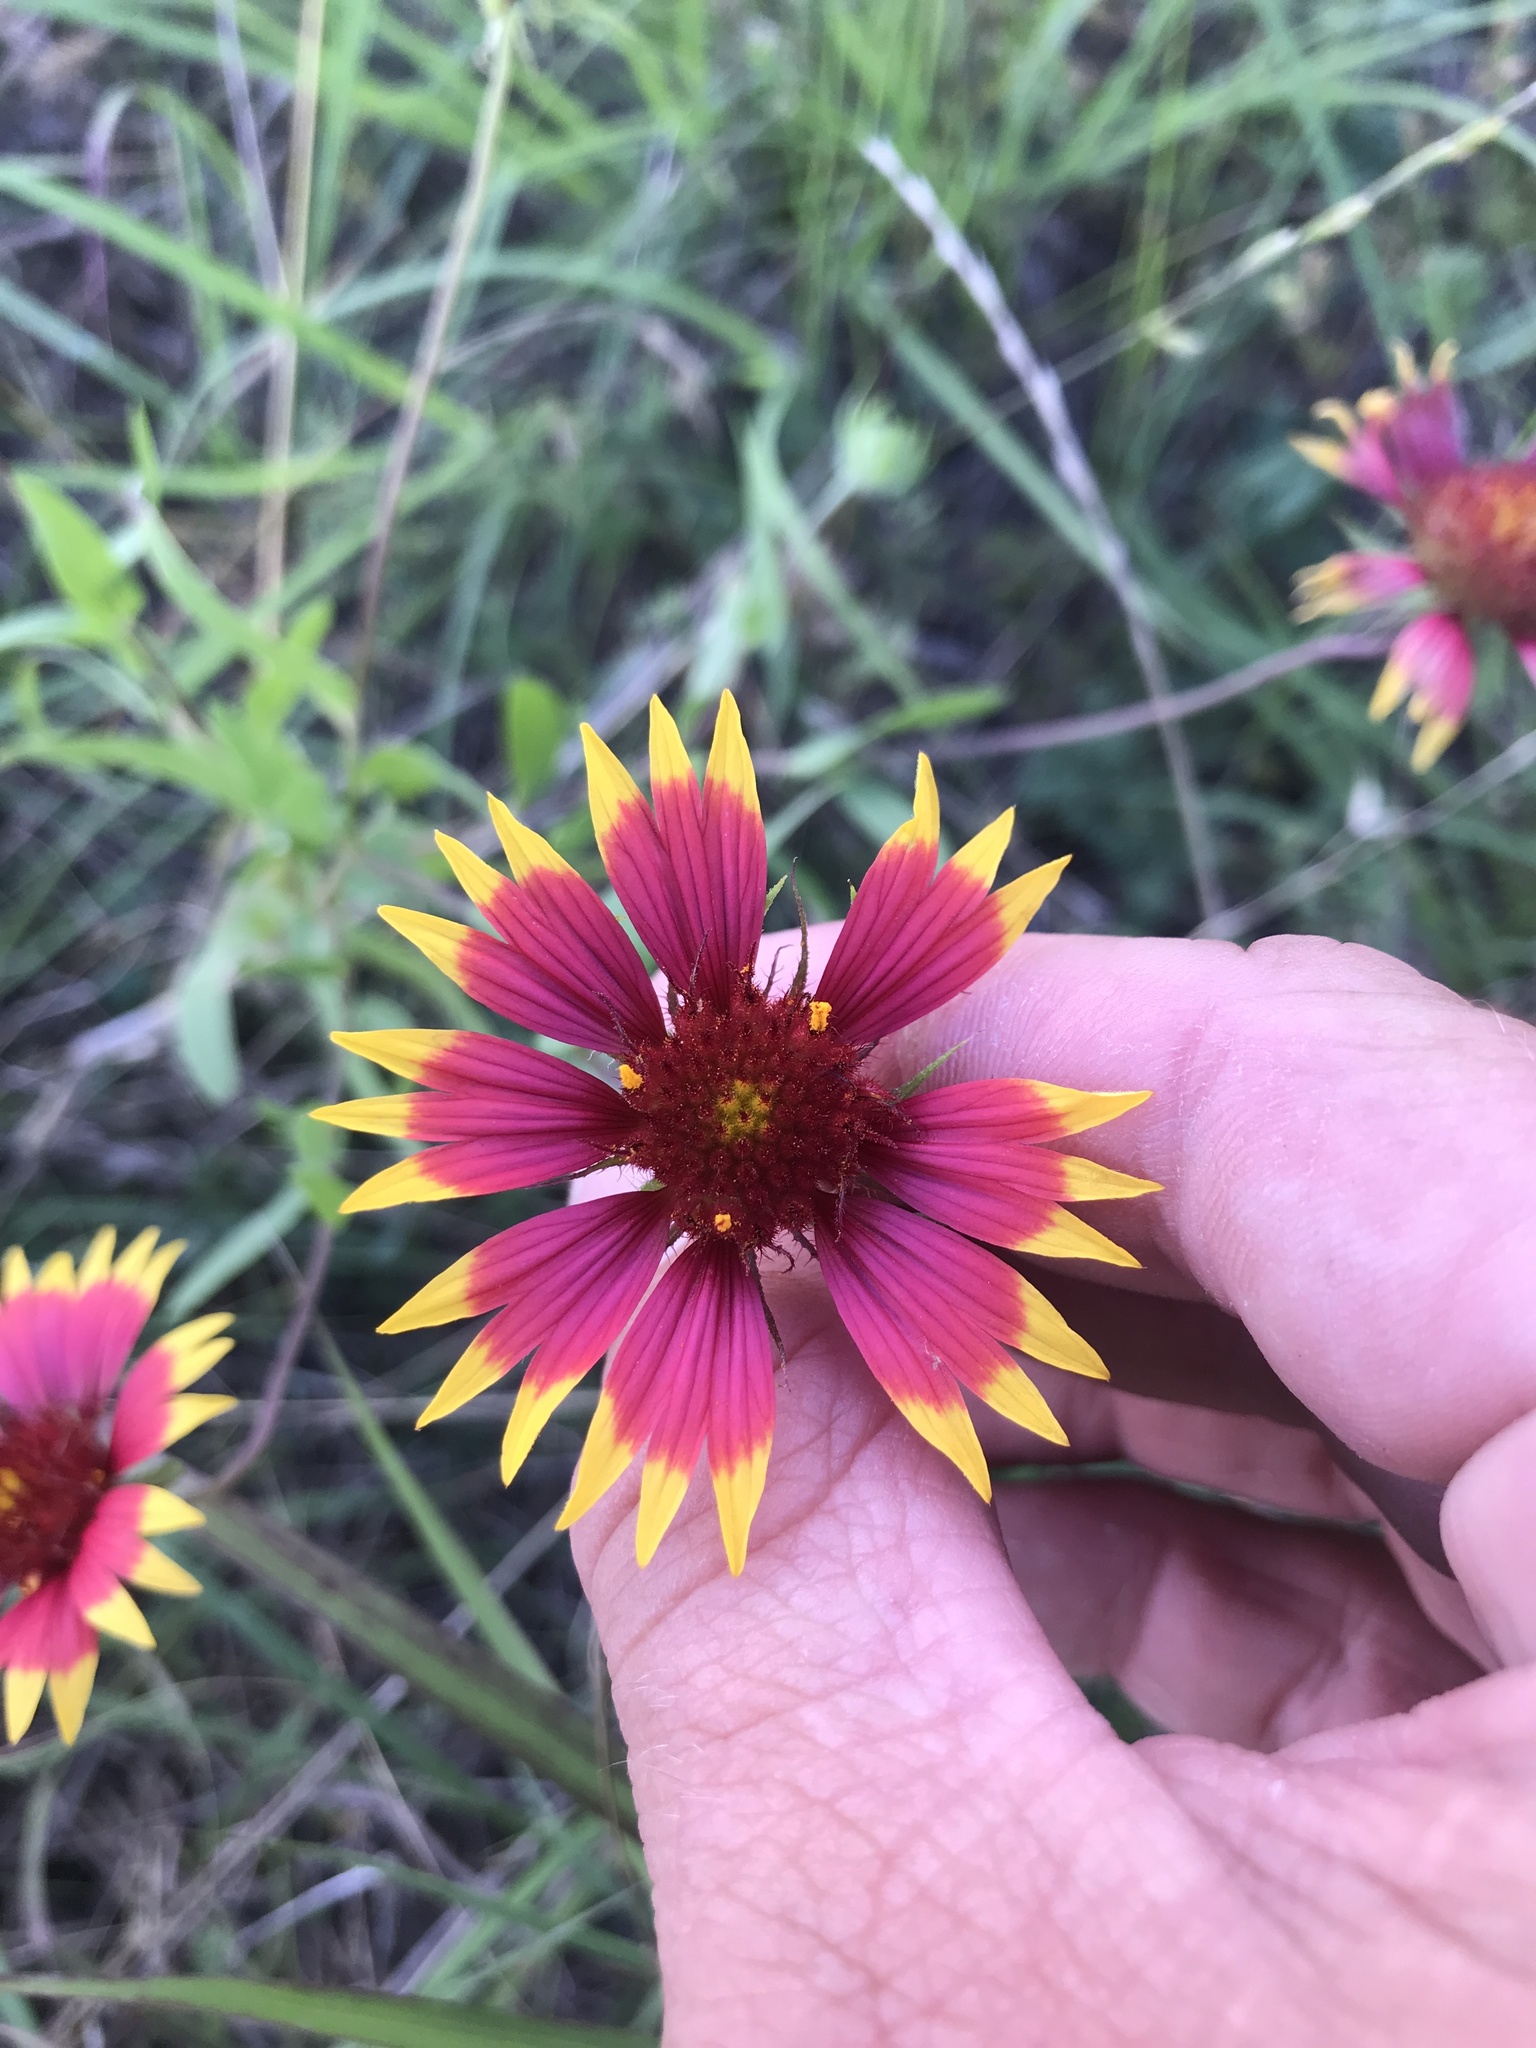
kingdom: Plantae
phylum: Tracheophyta
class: Magnoliopsida
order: Asterales
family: Asteraceae
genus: Gaillardia
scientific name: Gaillardia pulchella
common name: Firewheel
